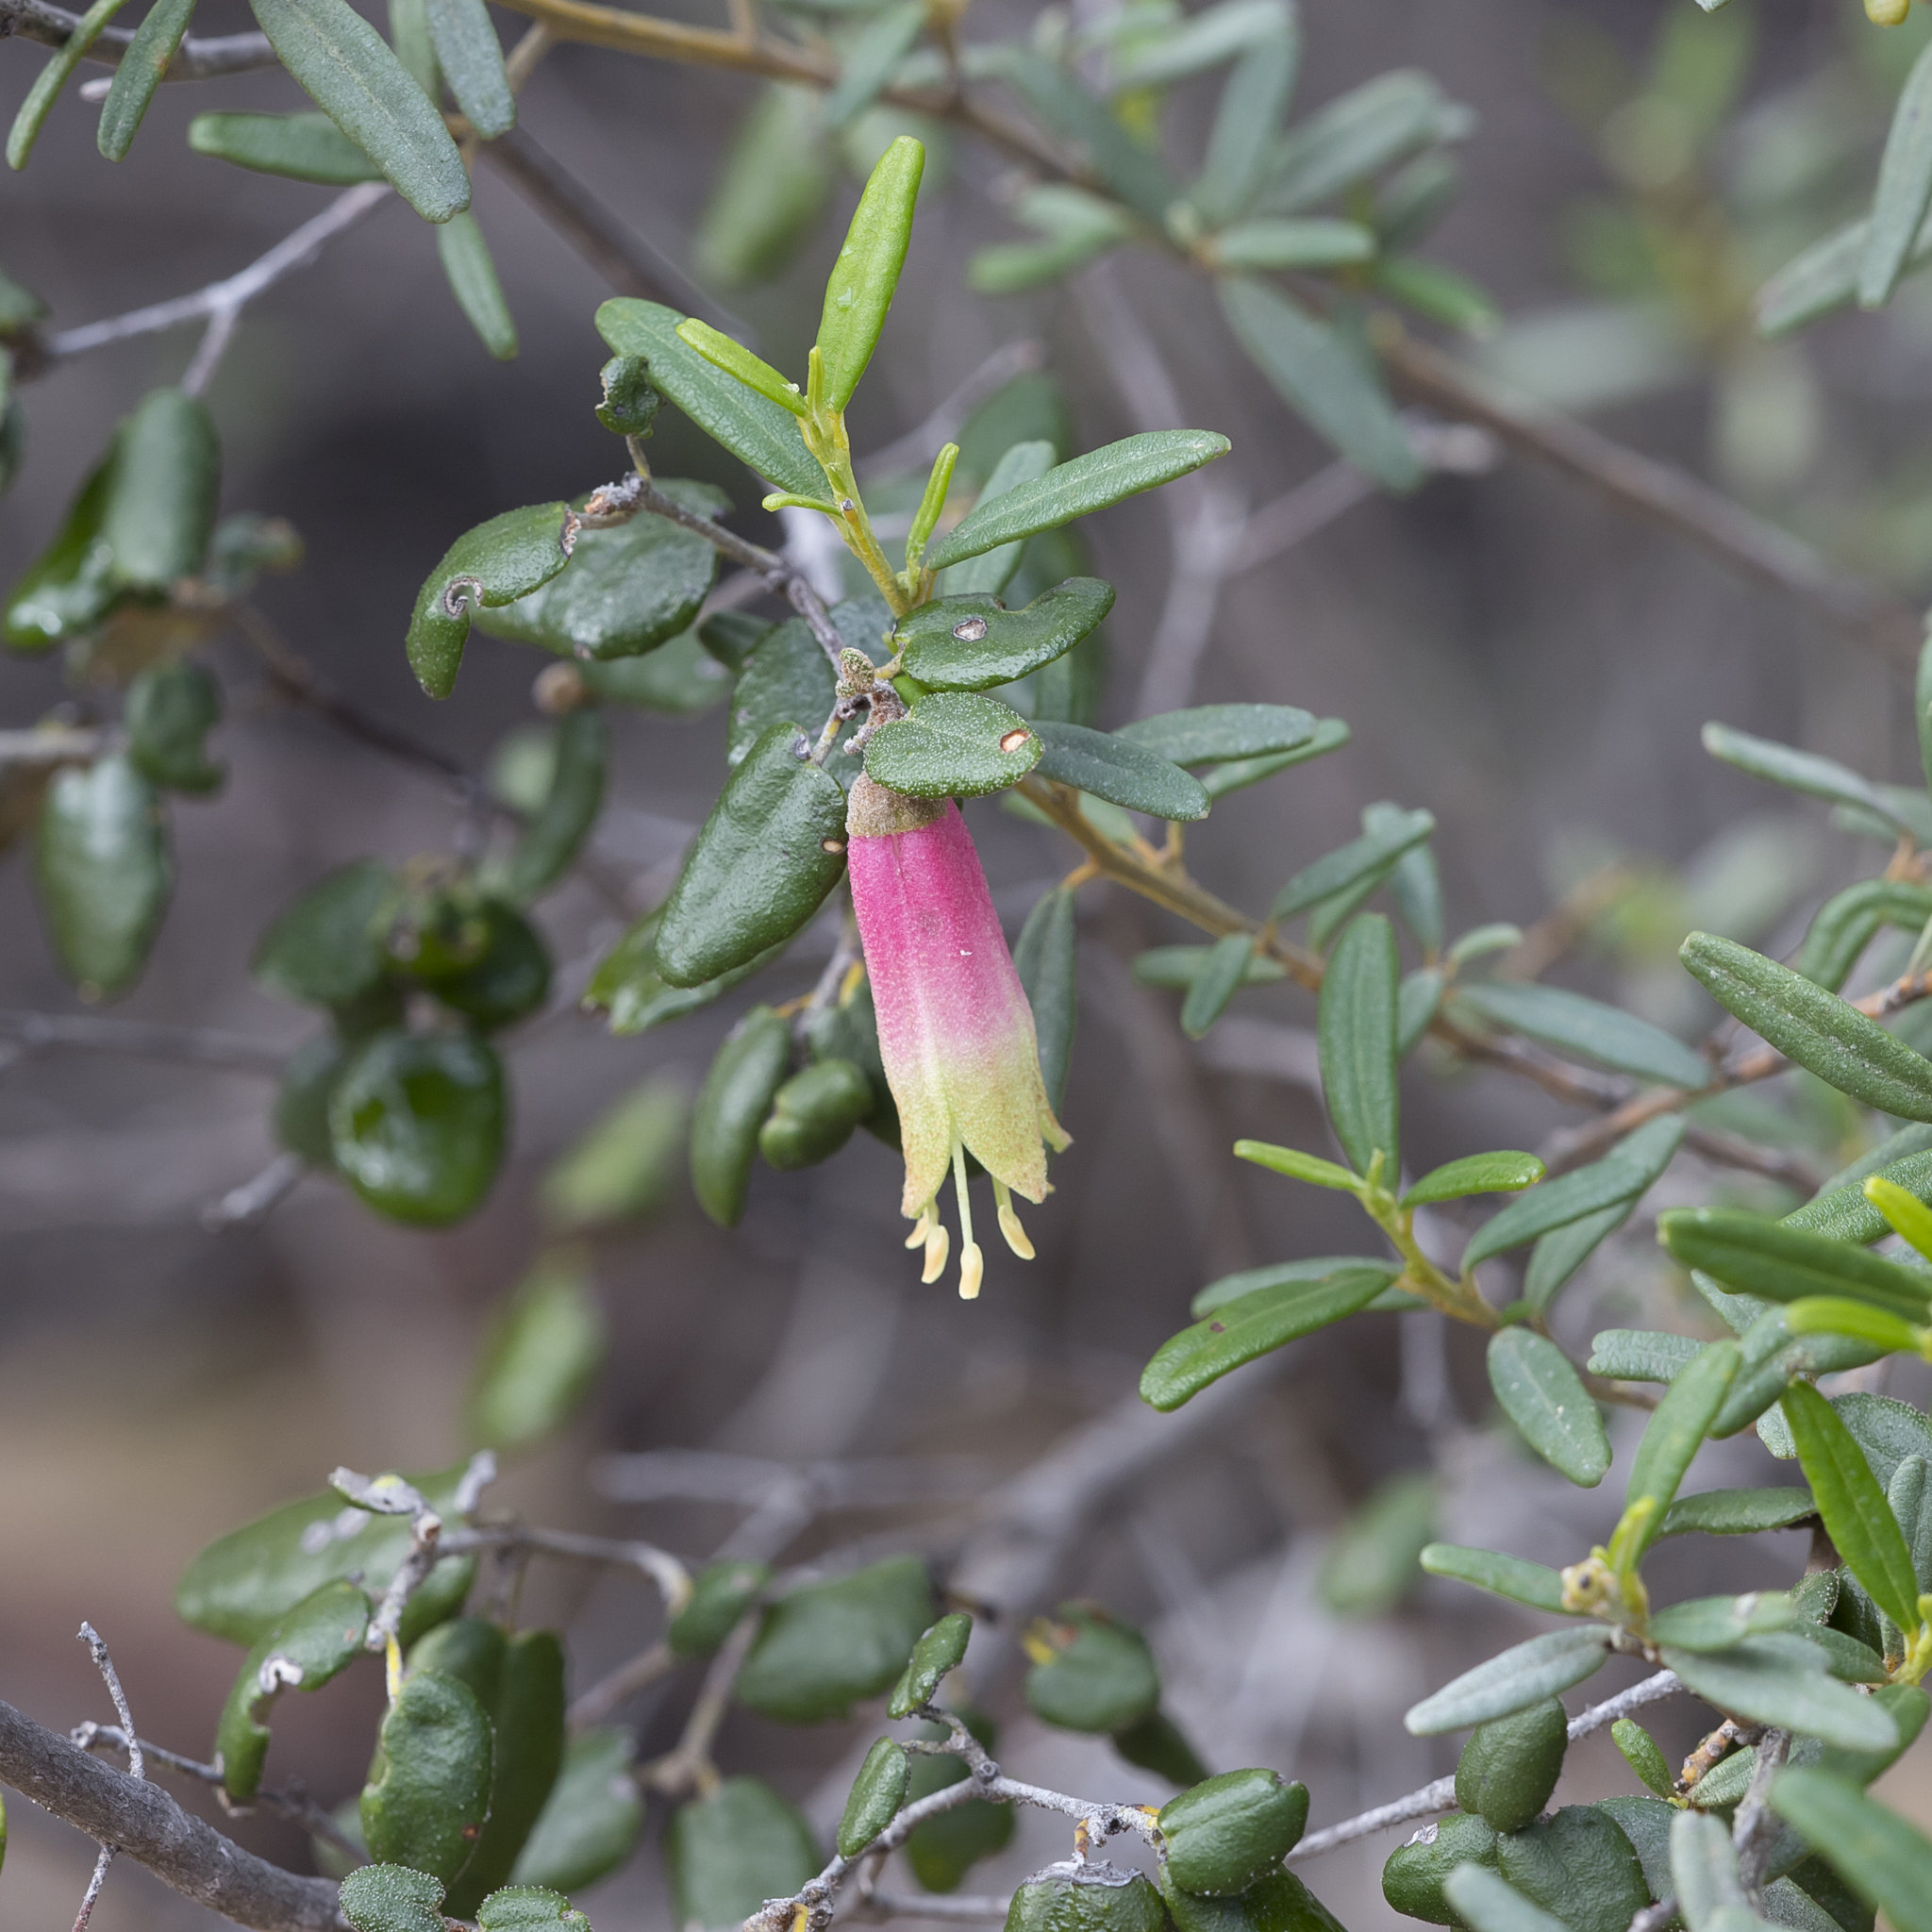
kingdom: Plantae
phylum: Tracheophyta
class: Magnoliopsida
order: Sapindales
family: Rutaceae
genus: Correa
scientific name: Correa reflexa
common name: Common correa
